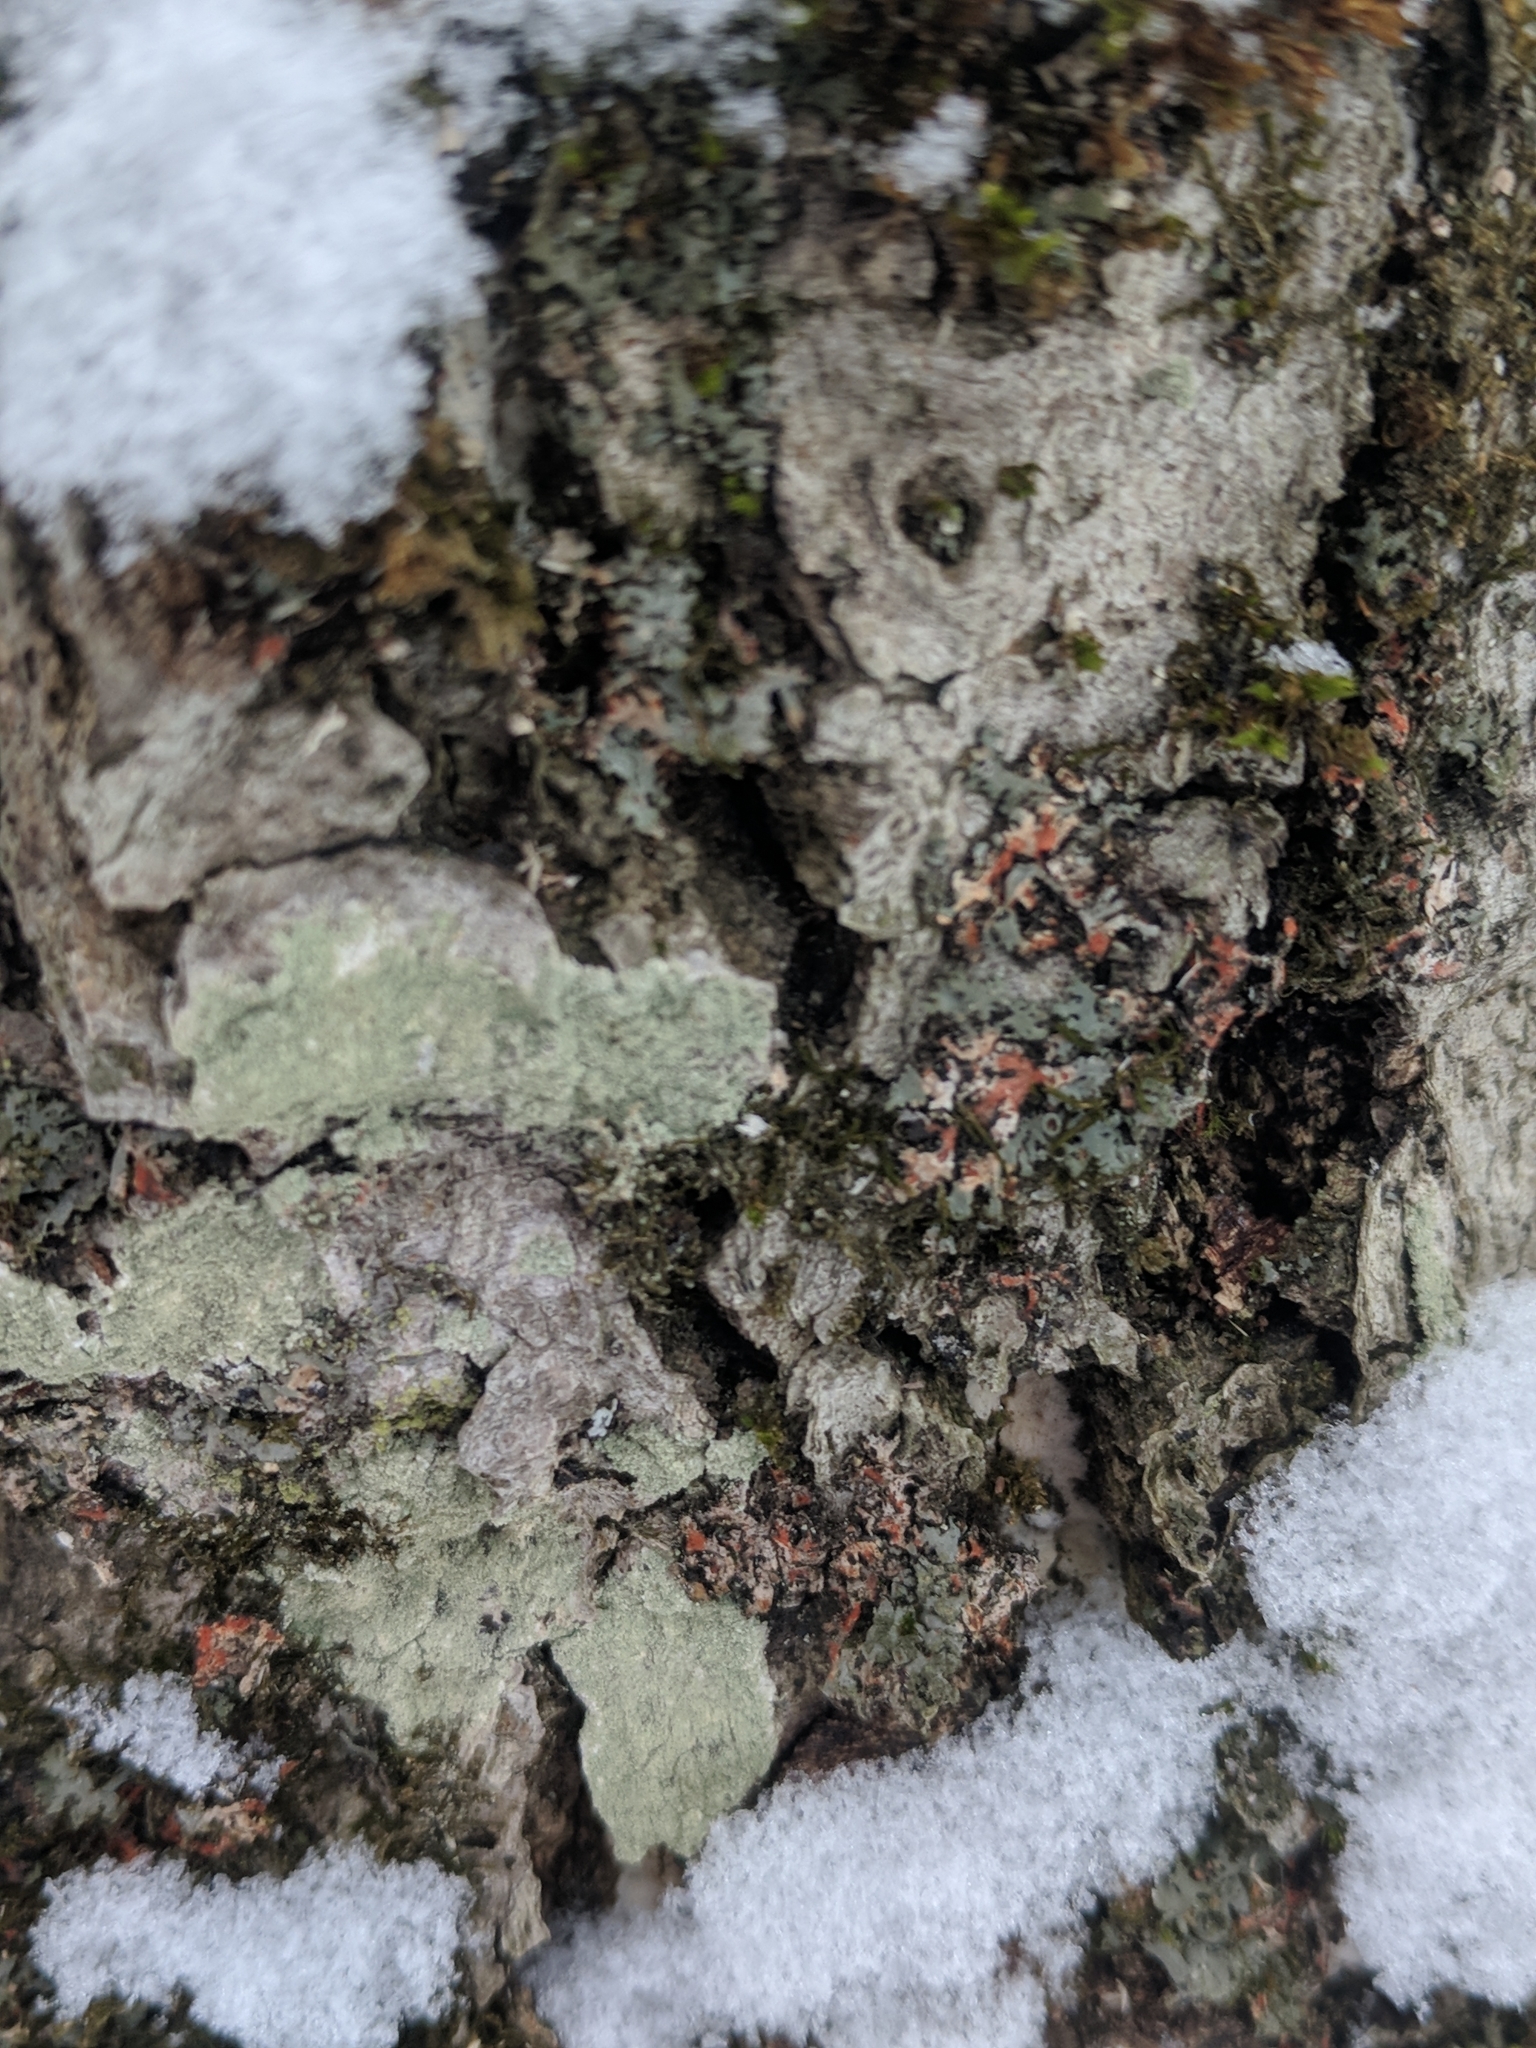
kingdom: Fungi
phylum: Ascomycota
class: Lecanoromycetes
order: Pertusariales
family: Pertusariaceae
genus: Verseghya
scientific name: Verseghya thysanophora
